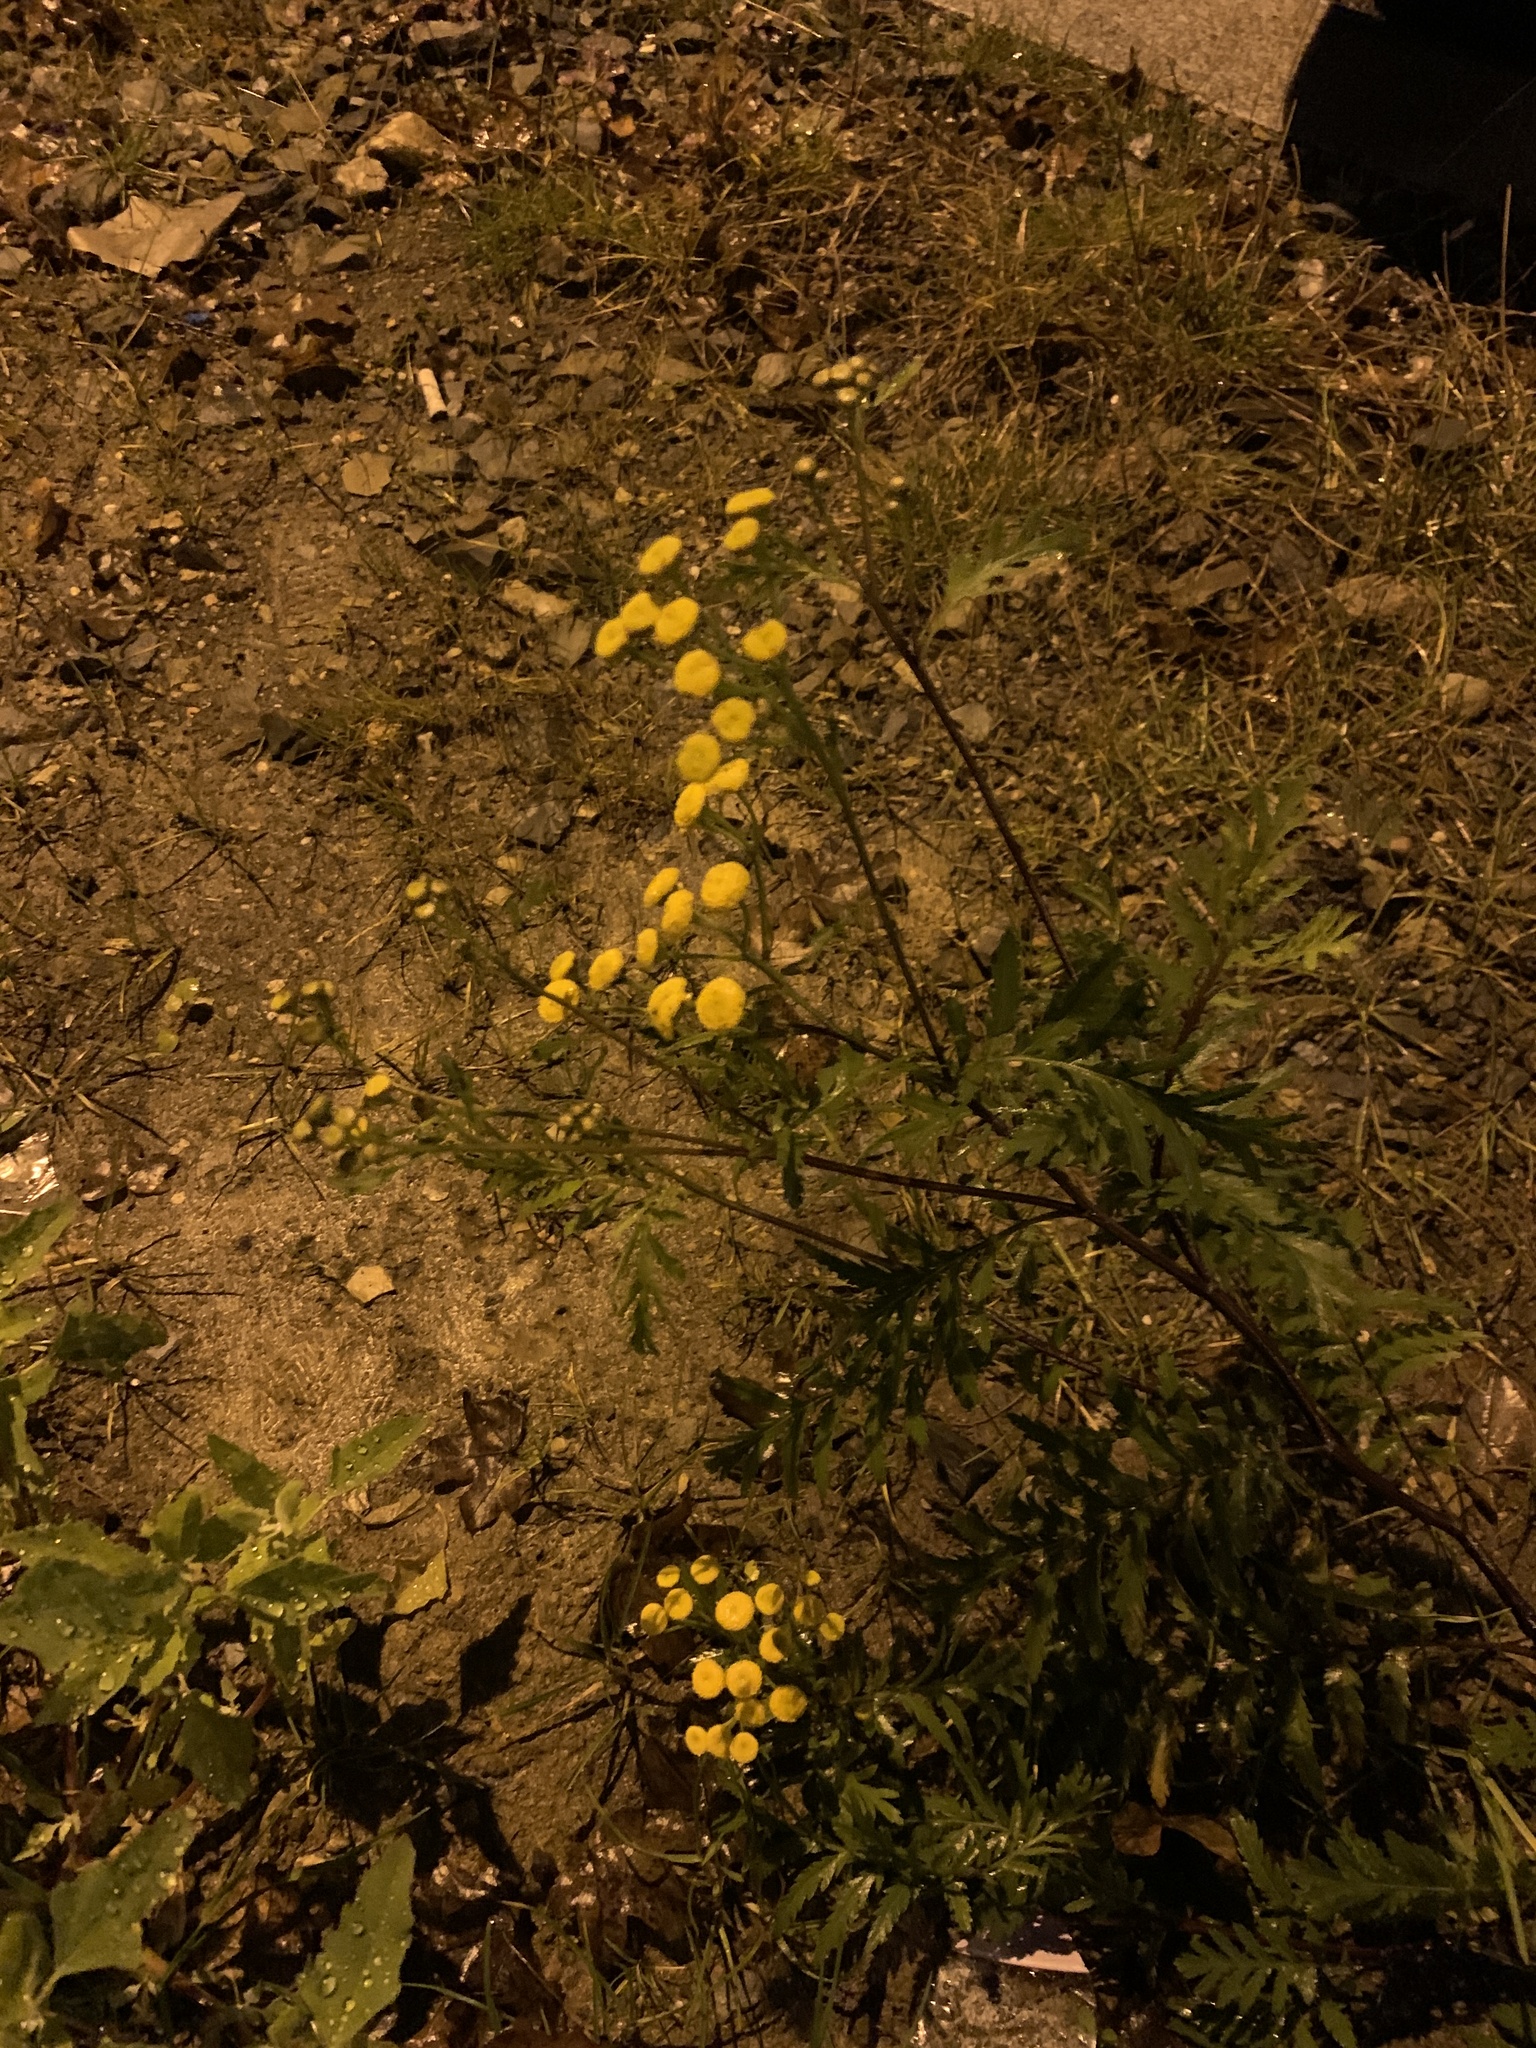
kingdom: Plantae
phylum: Tracheophyta
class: Magnoliopsida
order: Asterales
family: Asteraceae
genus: Tanacetum
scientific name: Tanacetum vulgare
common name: Common tansy
